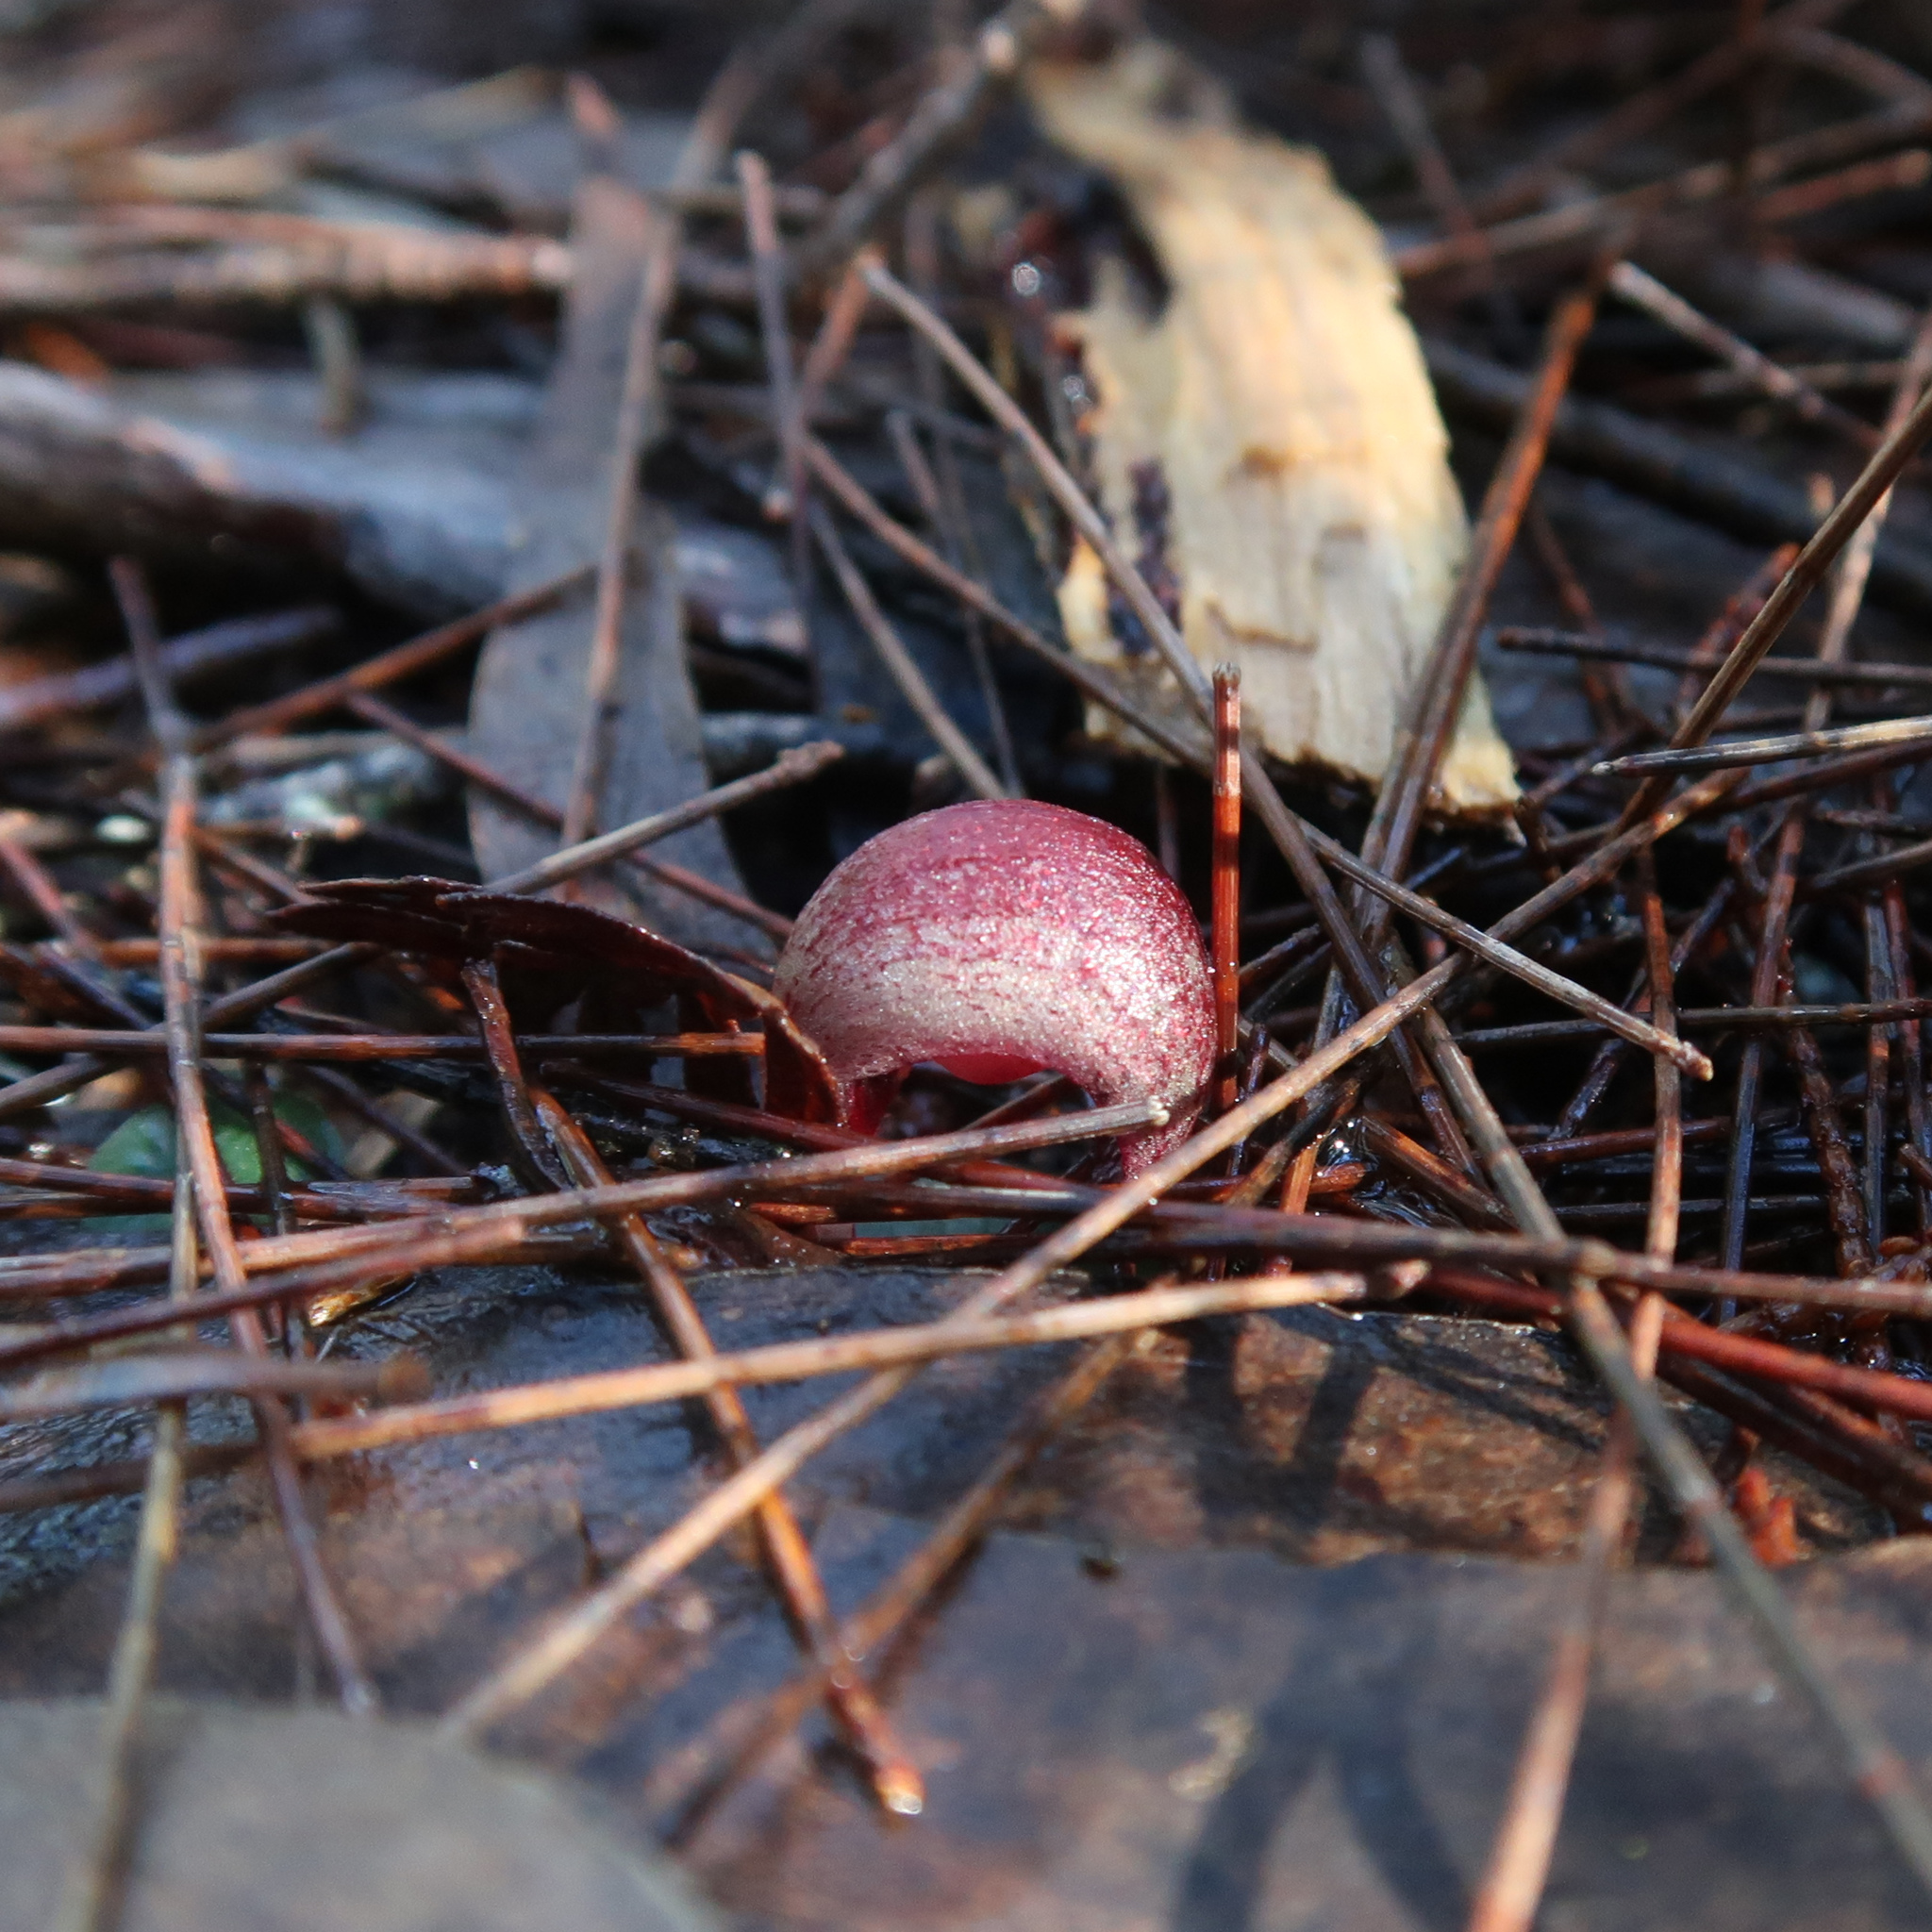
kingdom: Plantae
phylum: Tracheophyta
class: Liliopsida
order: Asparagales
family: Orchidaceae
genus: Corybas
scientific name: Corybas aconitiflorus
